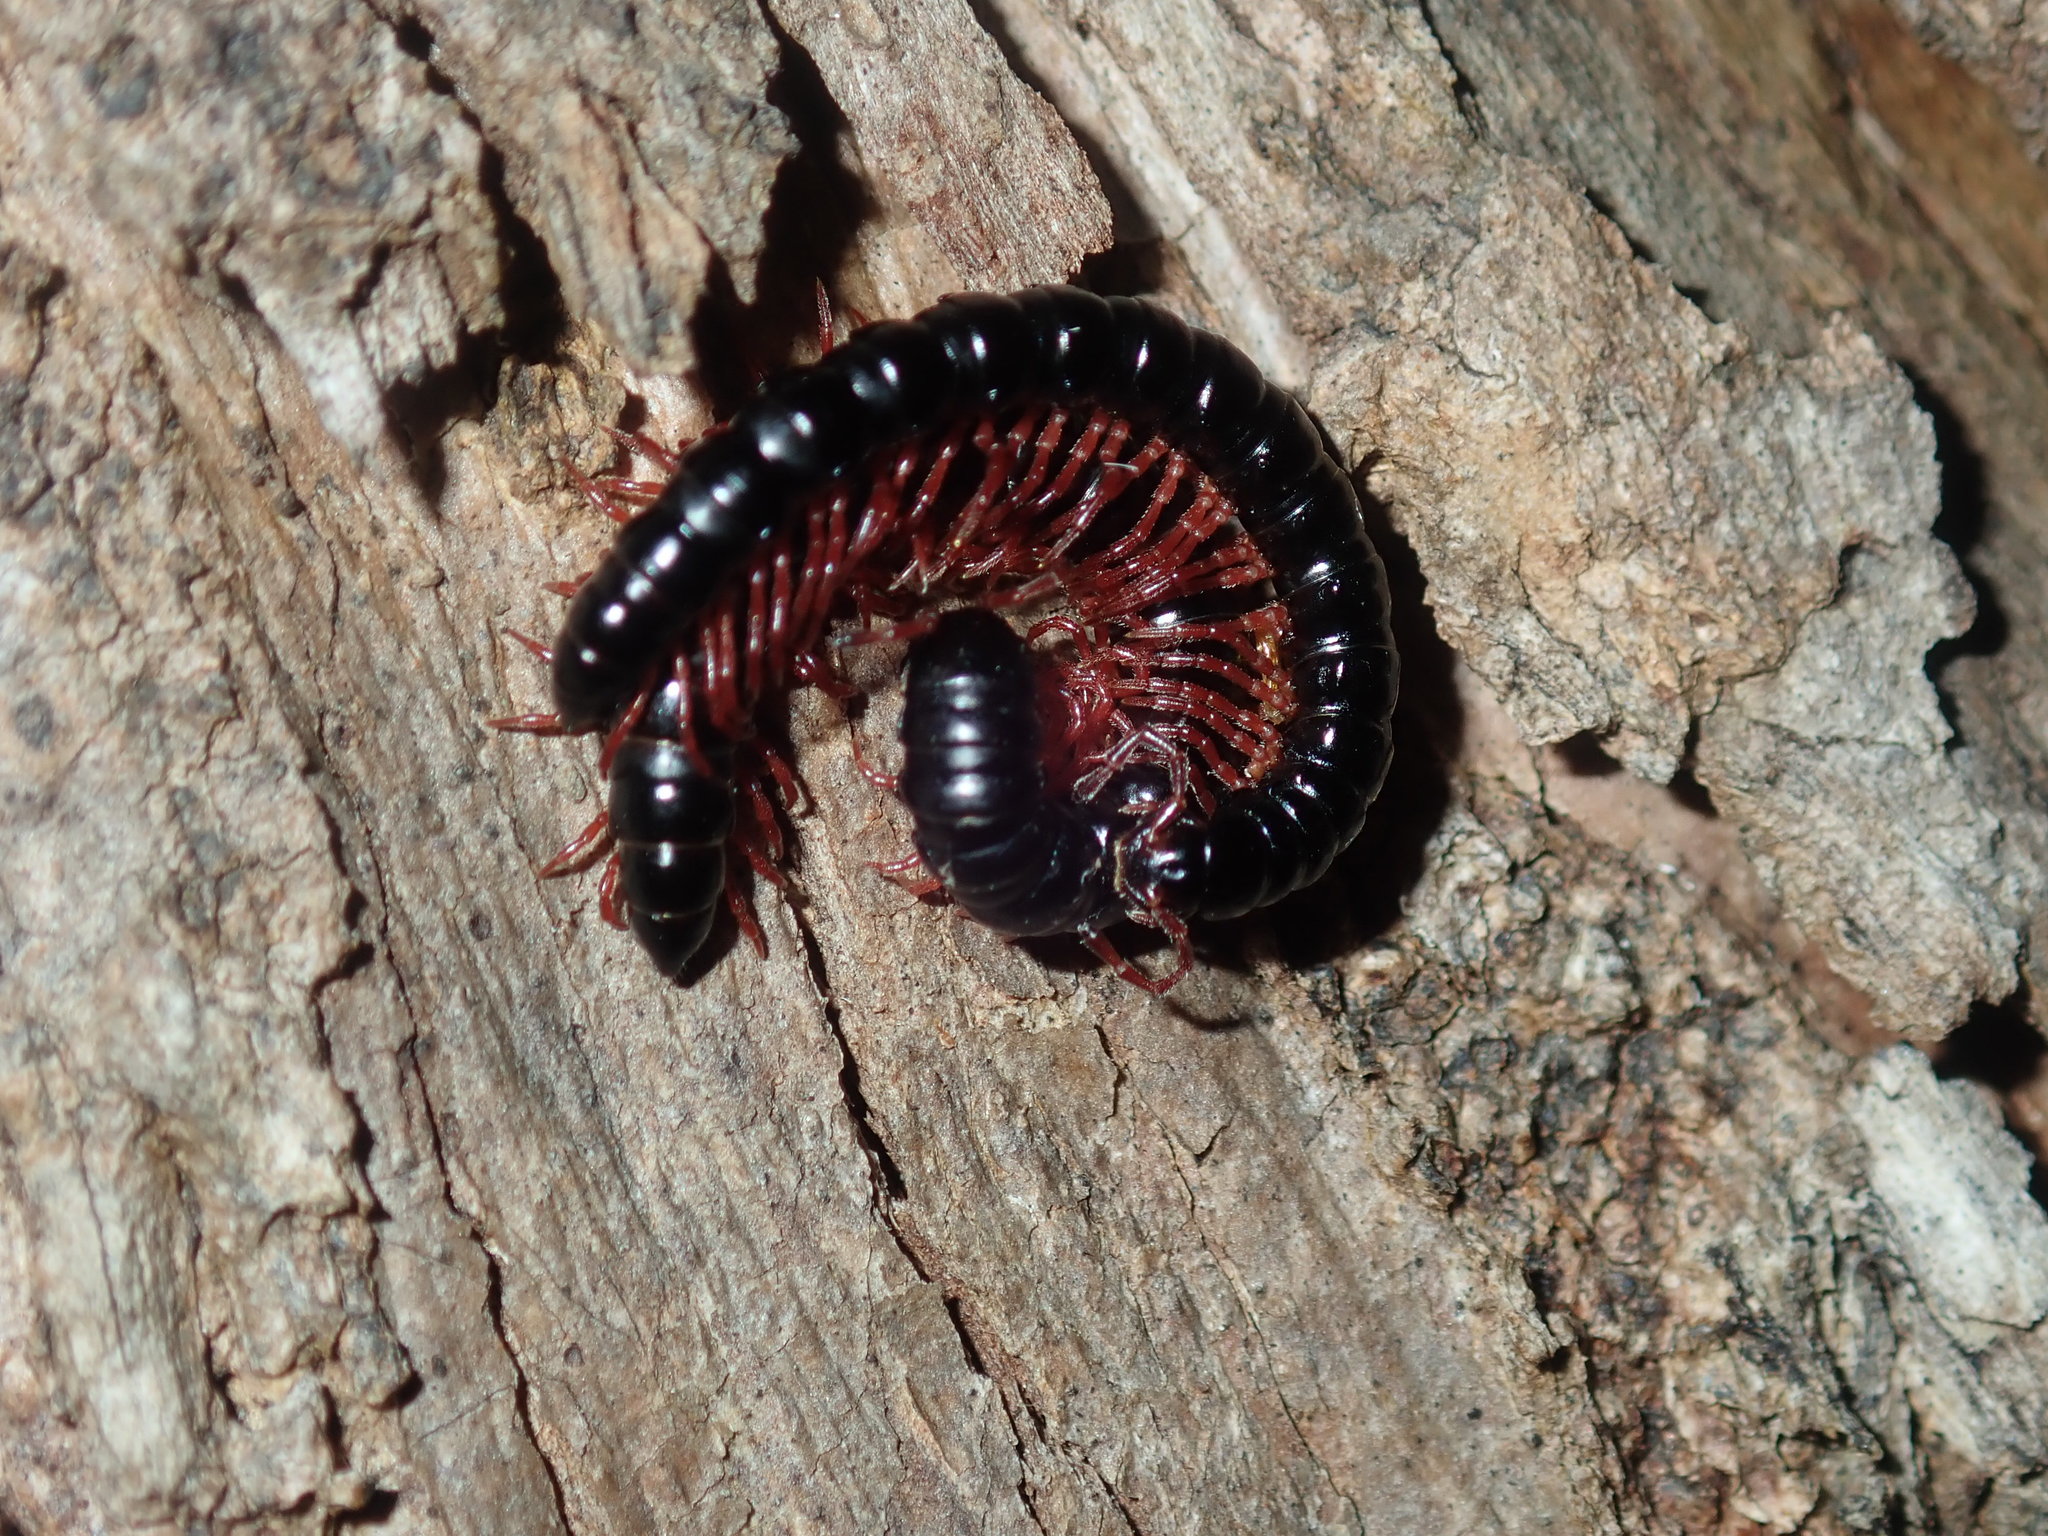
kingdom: Animalia
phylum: Arthropoda
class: Diplopoda
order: Polydesmida
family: Paradoxosomatidae
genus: Heterocladosoma
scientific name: Heterocladosoma
